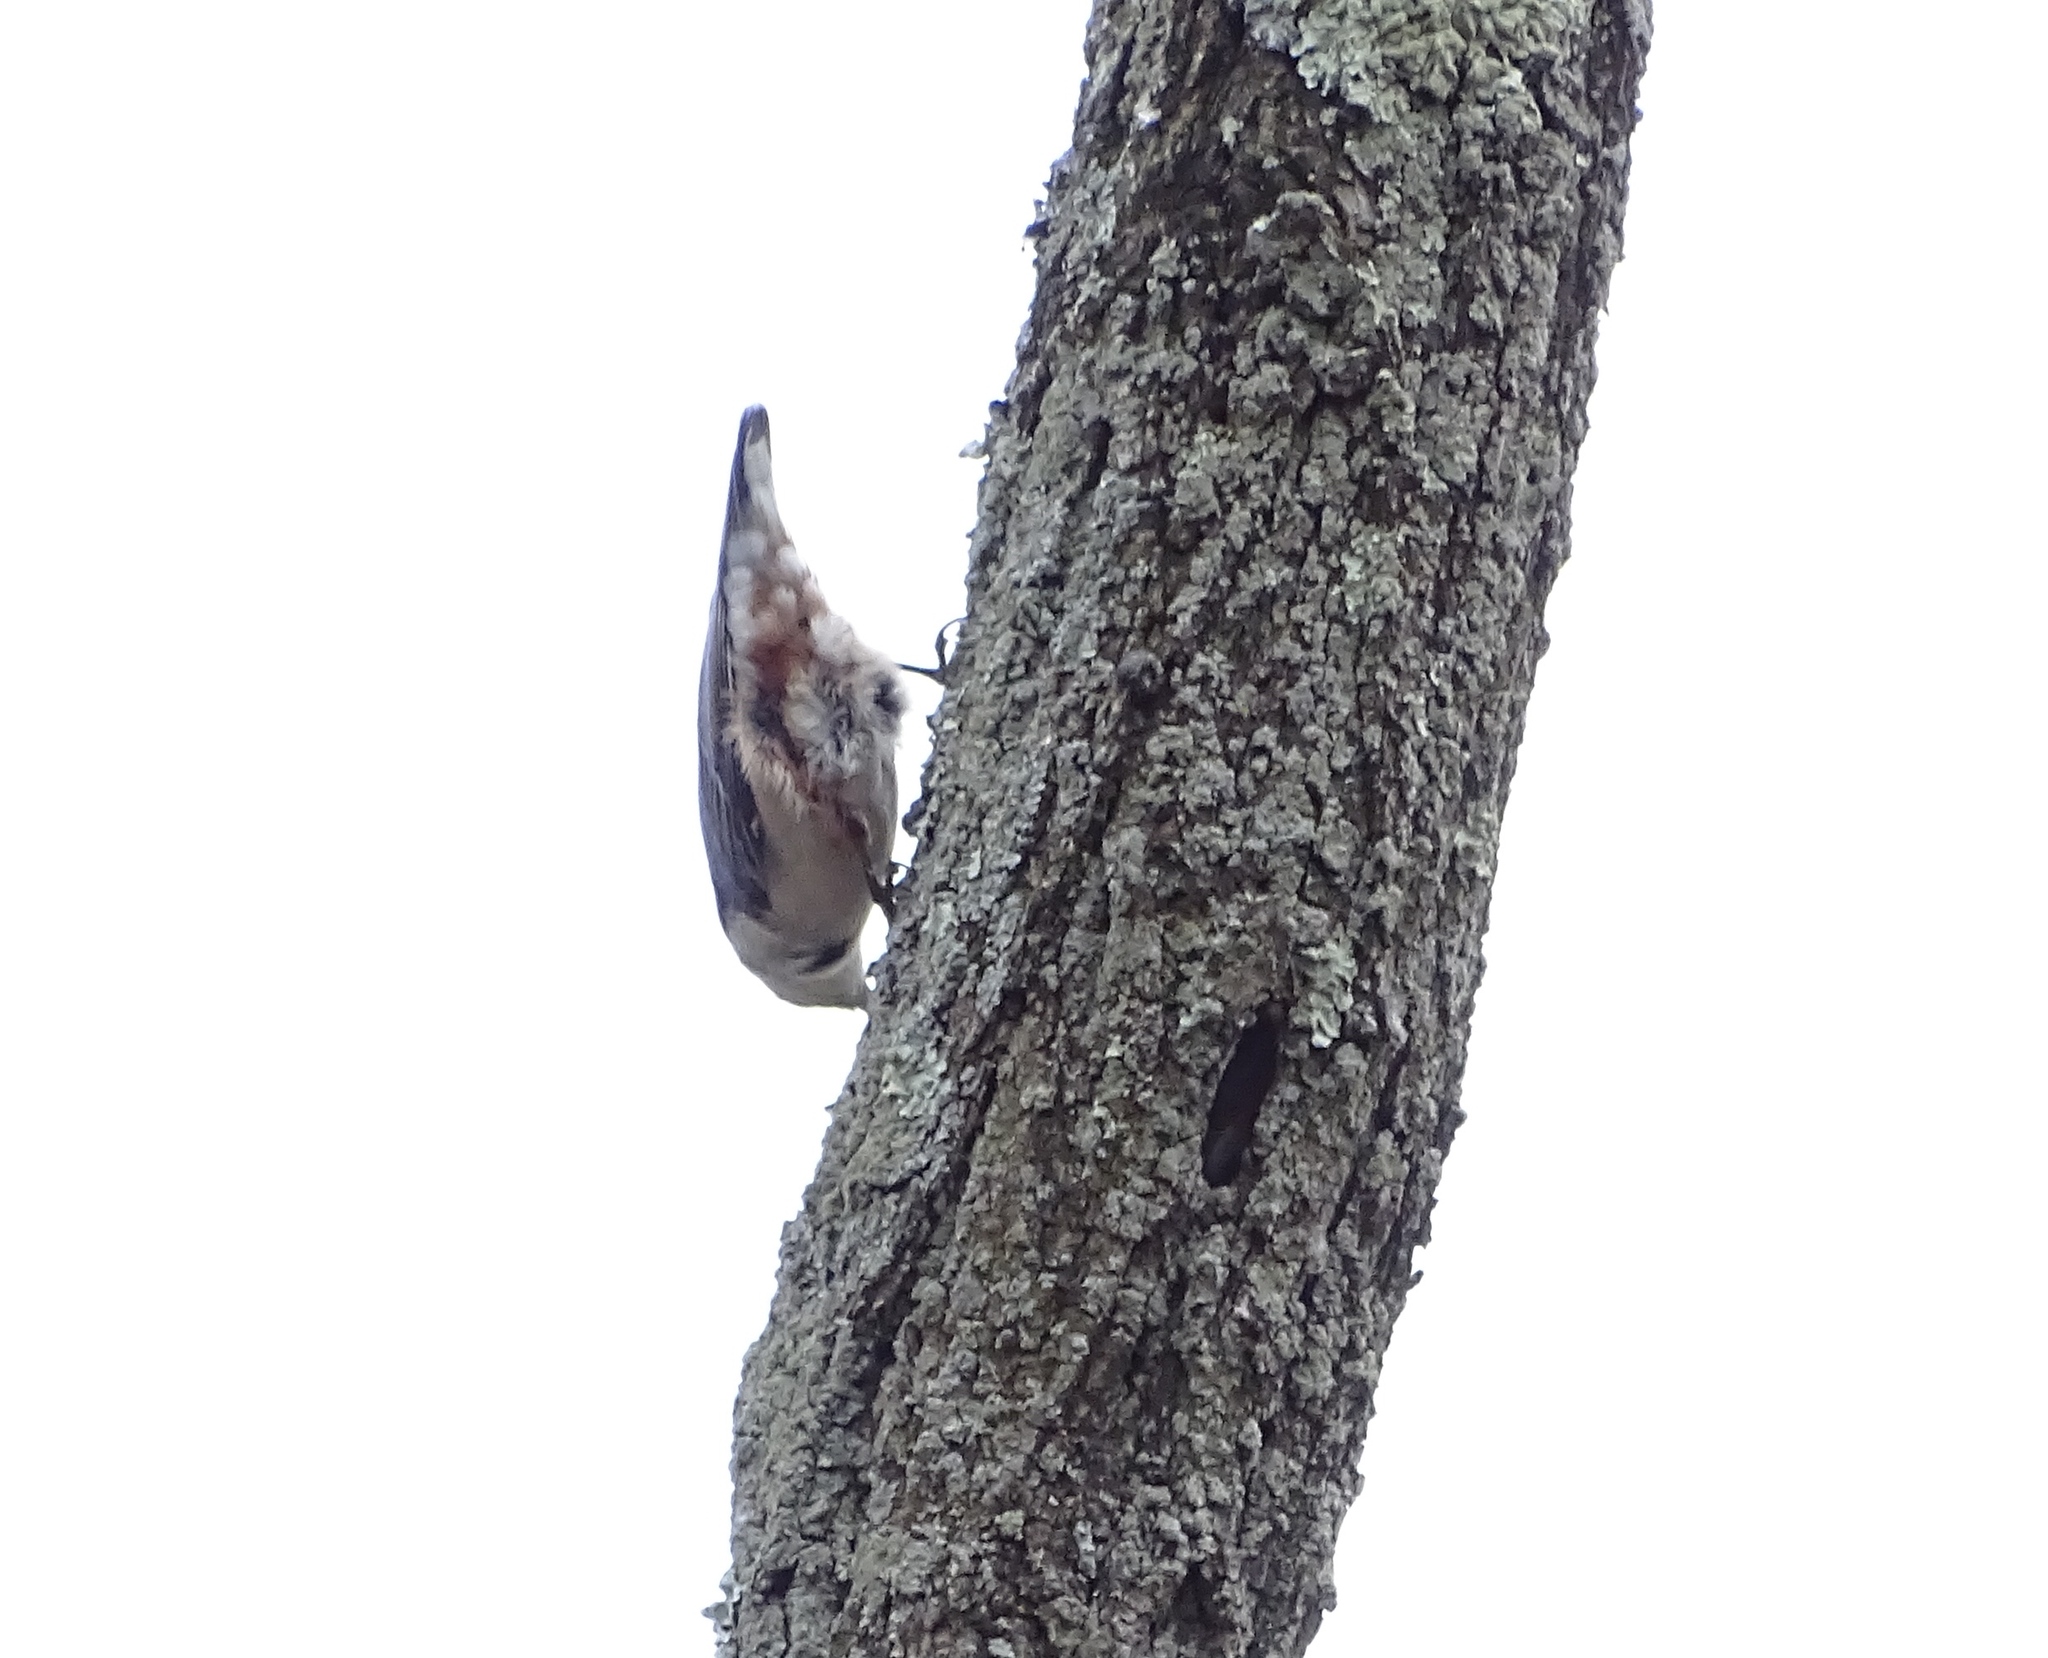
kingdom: Animalia
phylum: Chordata
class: Aves
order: Passeriformes
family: Sittidae
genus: Sitta
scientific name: Sitta carolinensis
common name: White-breasted nuthatch
